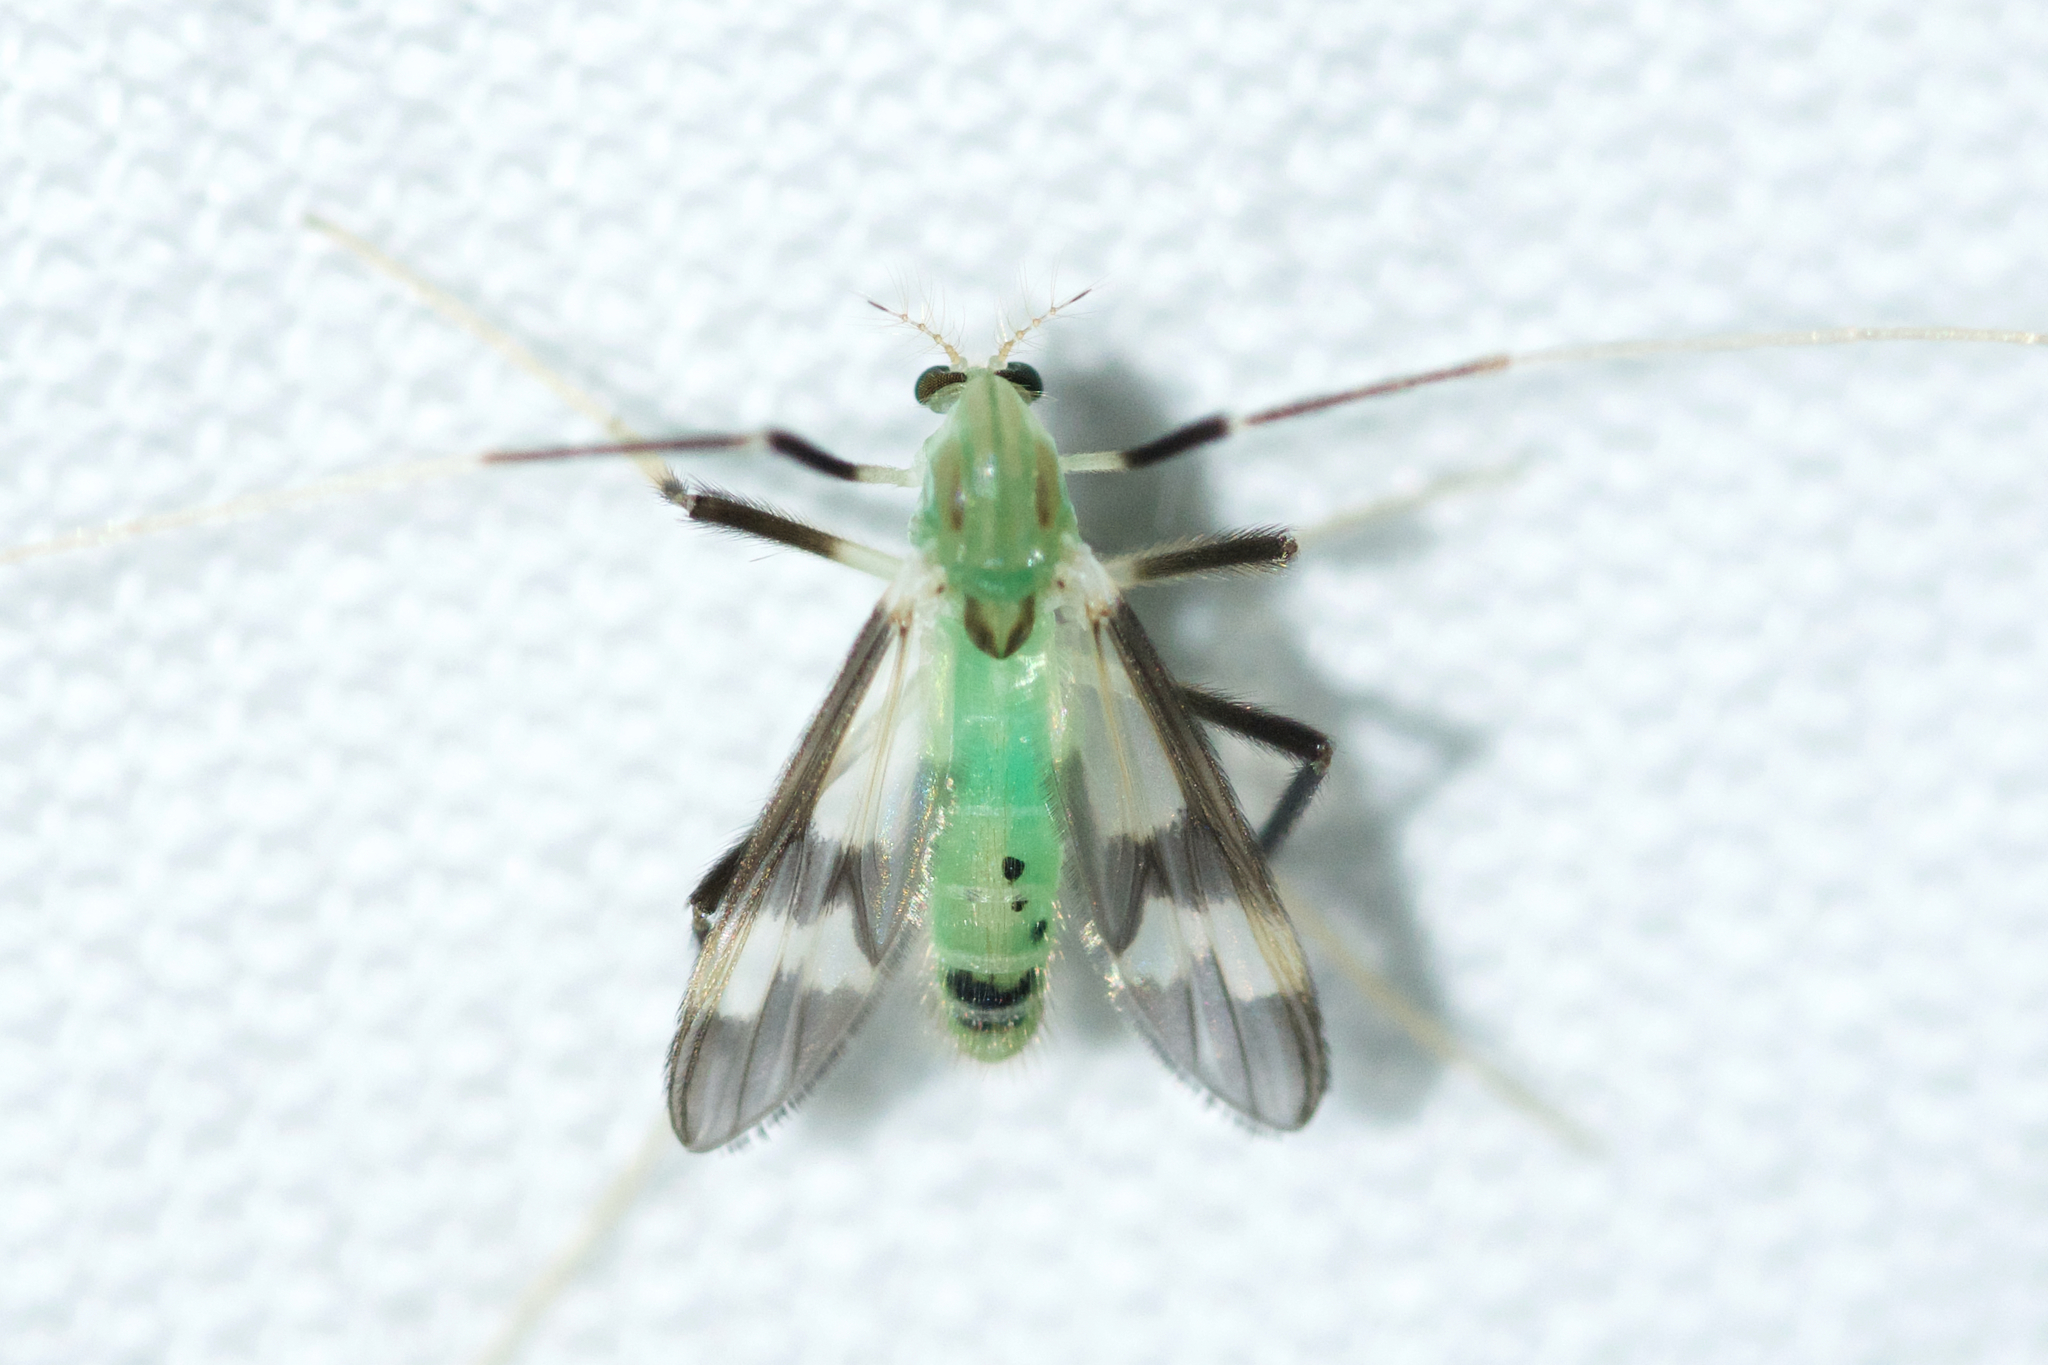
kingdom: Animalia
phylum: Arthropoda
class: Insecta
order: Diptera
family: Chironomidae
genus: Stenochironomus
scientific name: Stenochironomus hilaris
